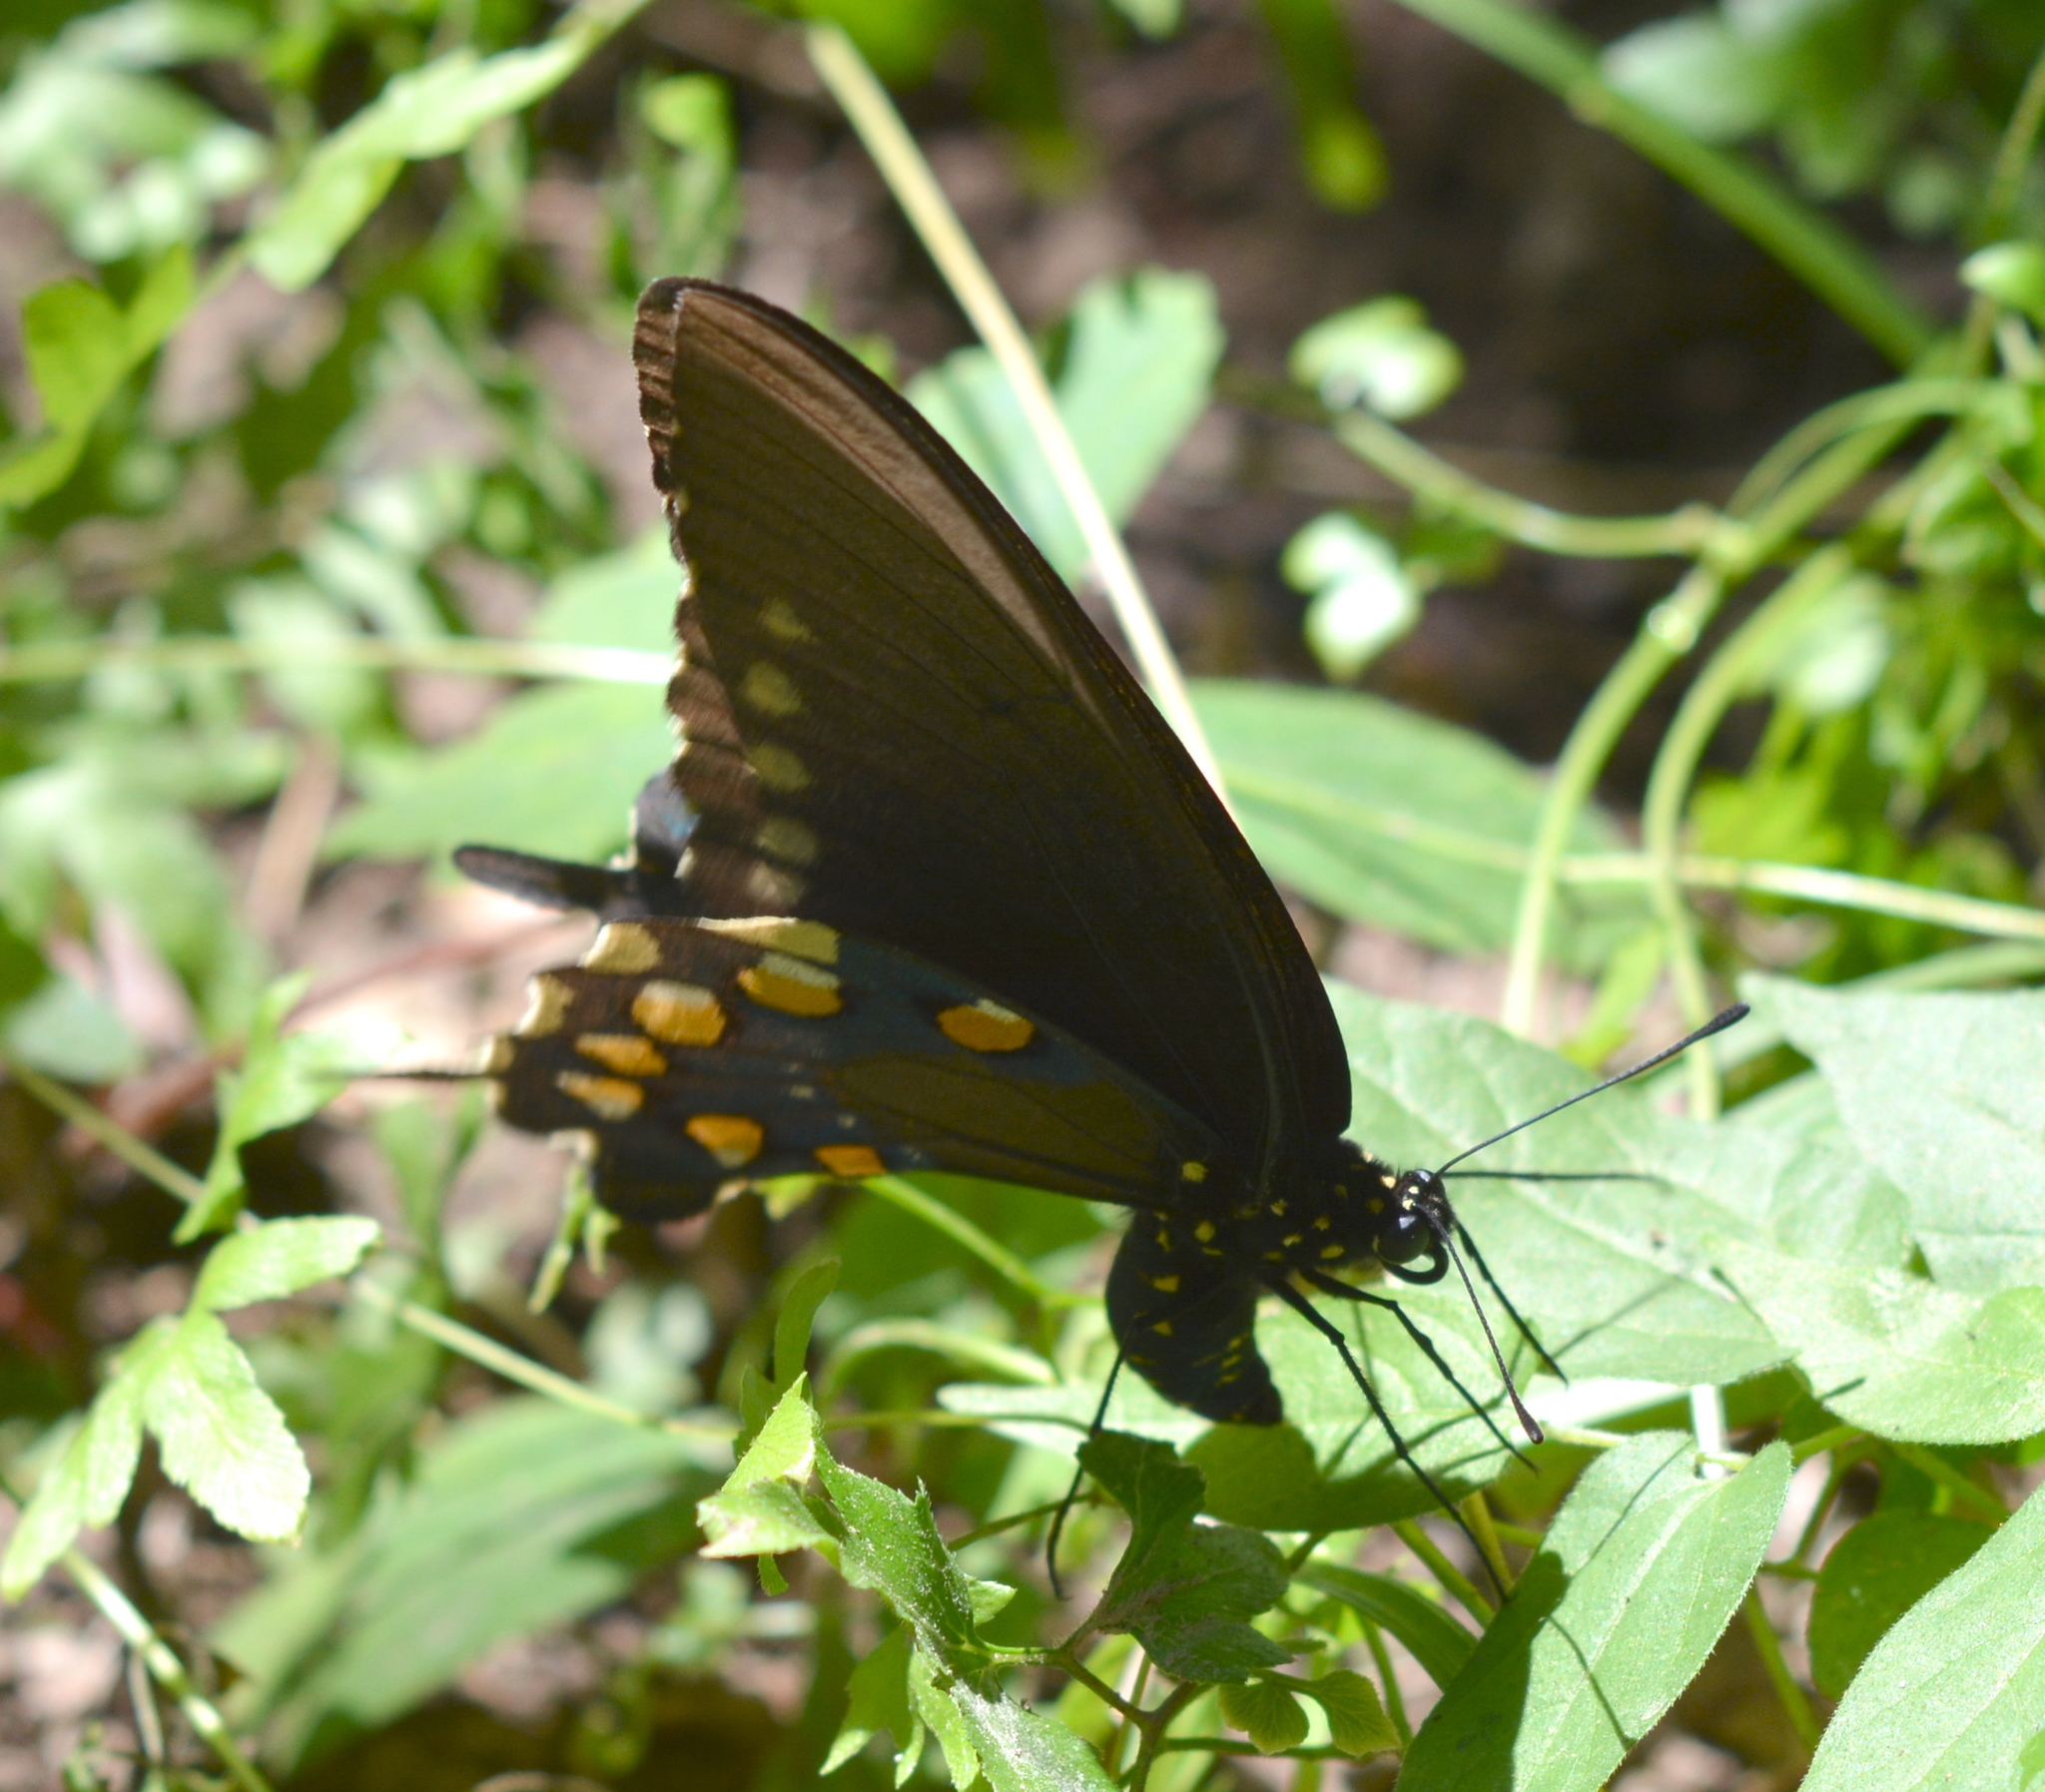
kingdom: Animalia
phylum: Arthropoda
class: Insecta
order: Lepidoptera
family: Papilionidae
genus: Battus
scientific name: Battus philenor
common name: Pipevine swallowtail
